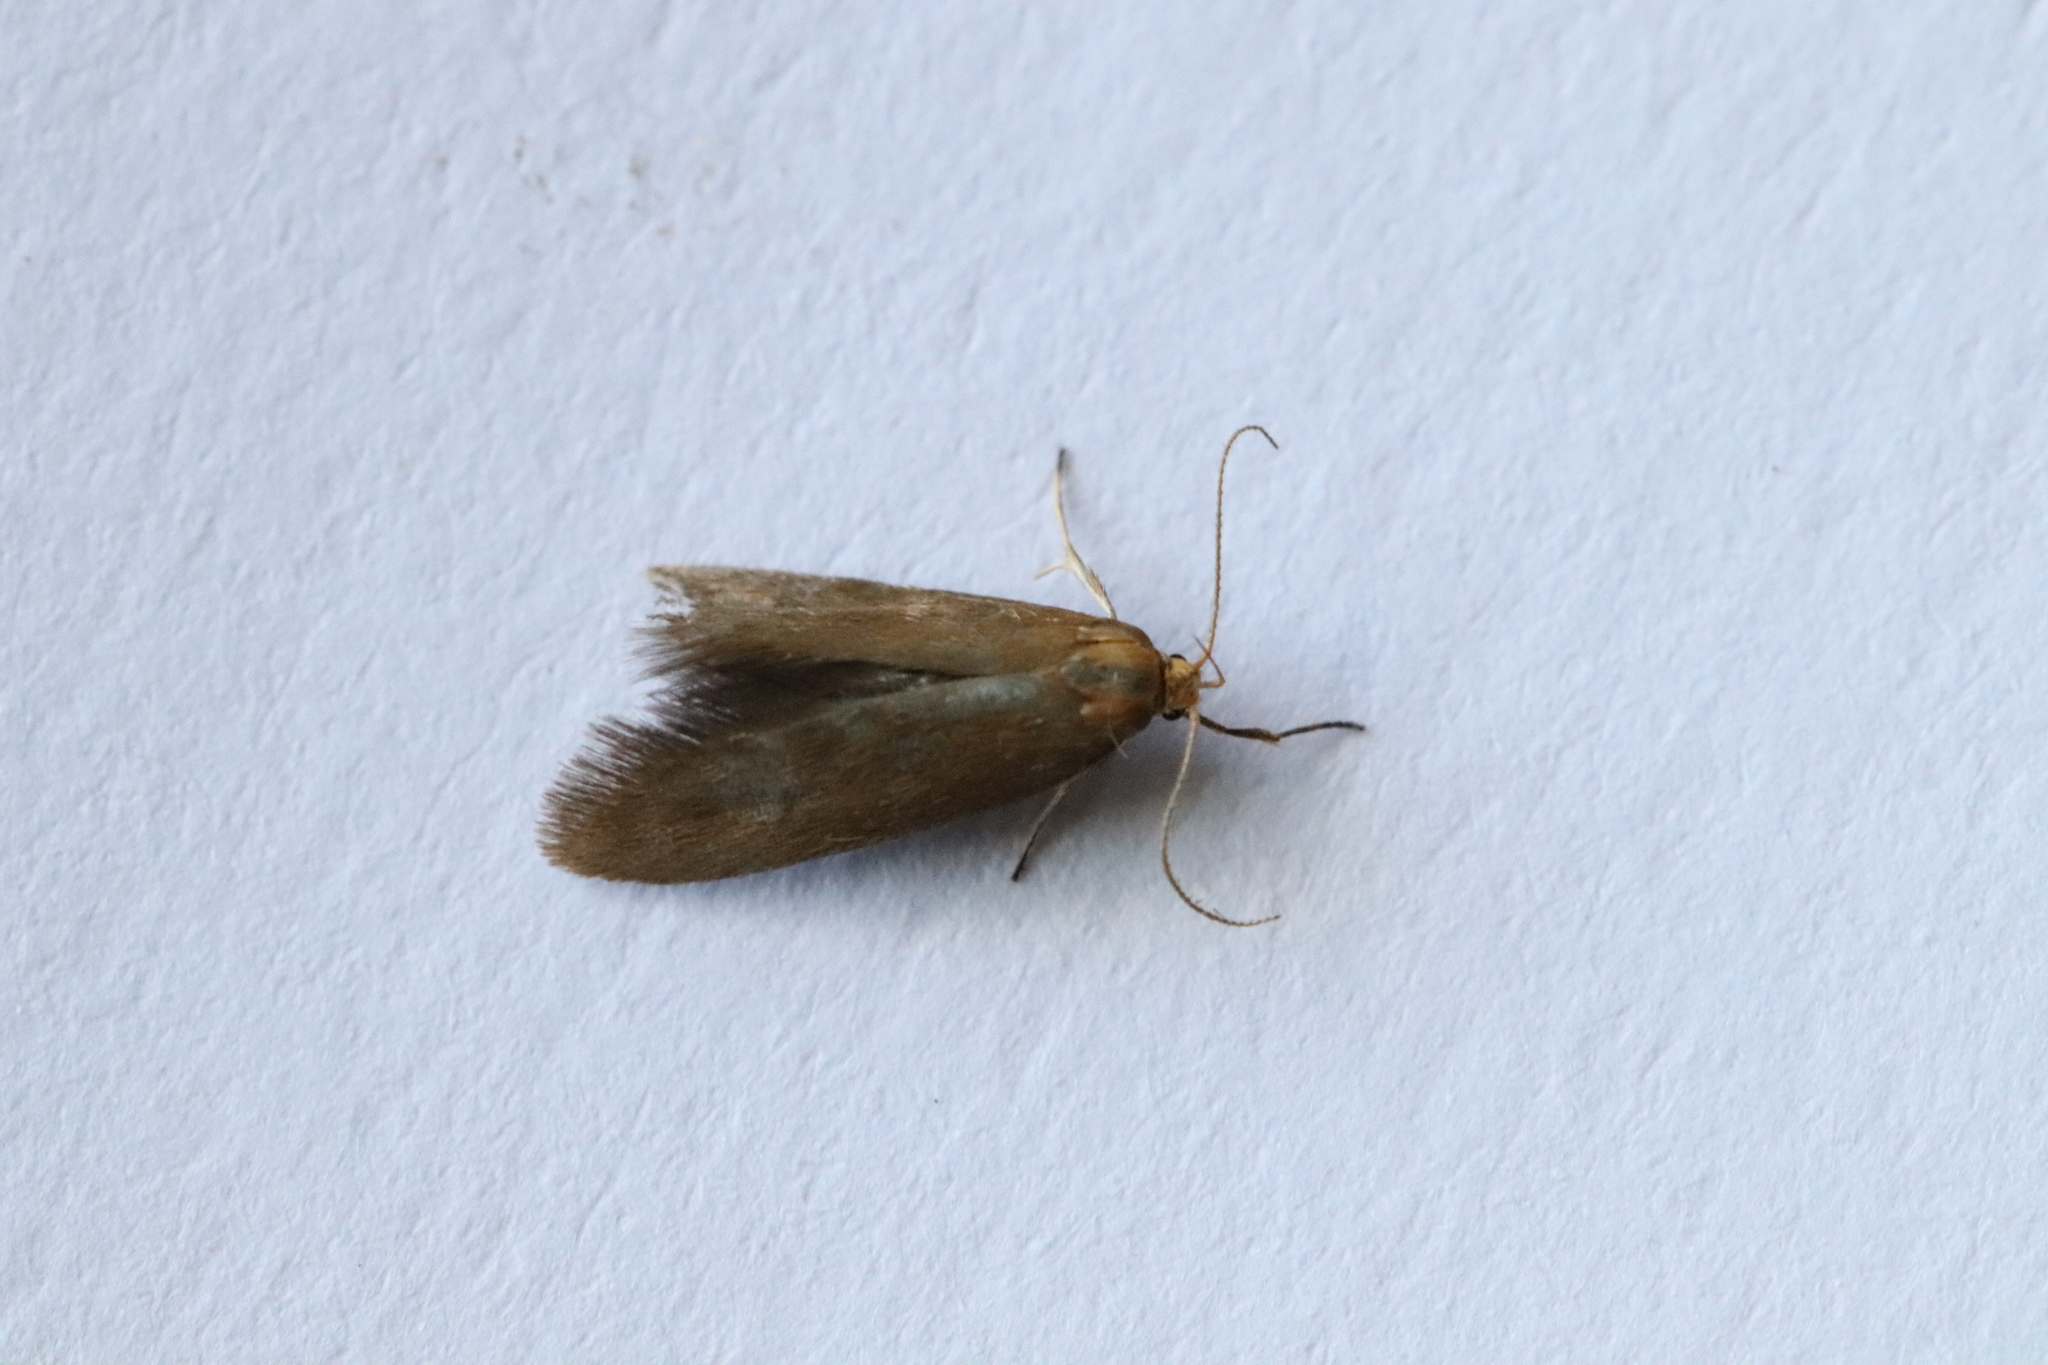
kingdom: Animalia
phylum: Arthropoda
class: Insecta
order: Lepidoptera
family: Oecophoridae
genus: Borkhausenia
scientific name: Borkhausenia Crassa tinctella
